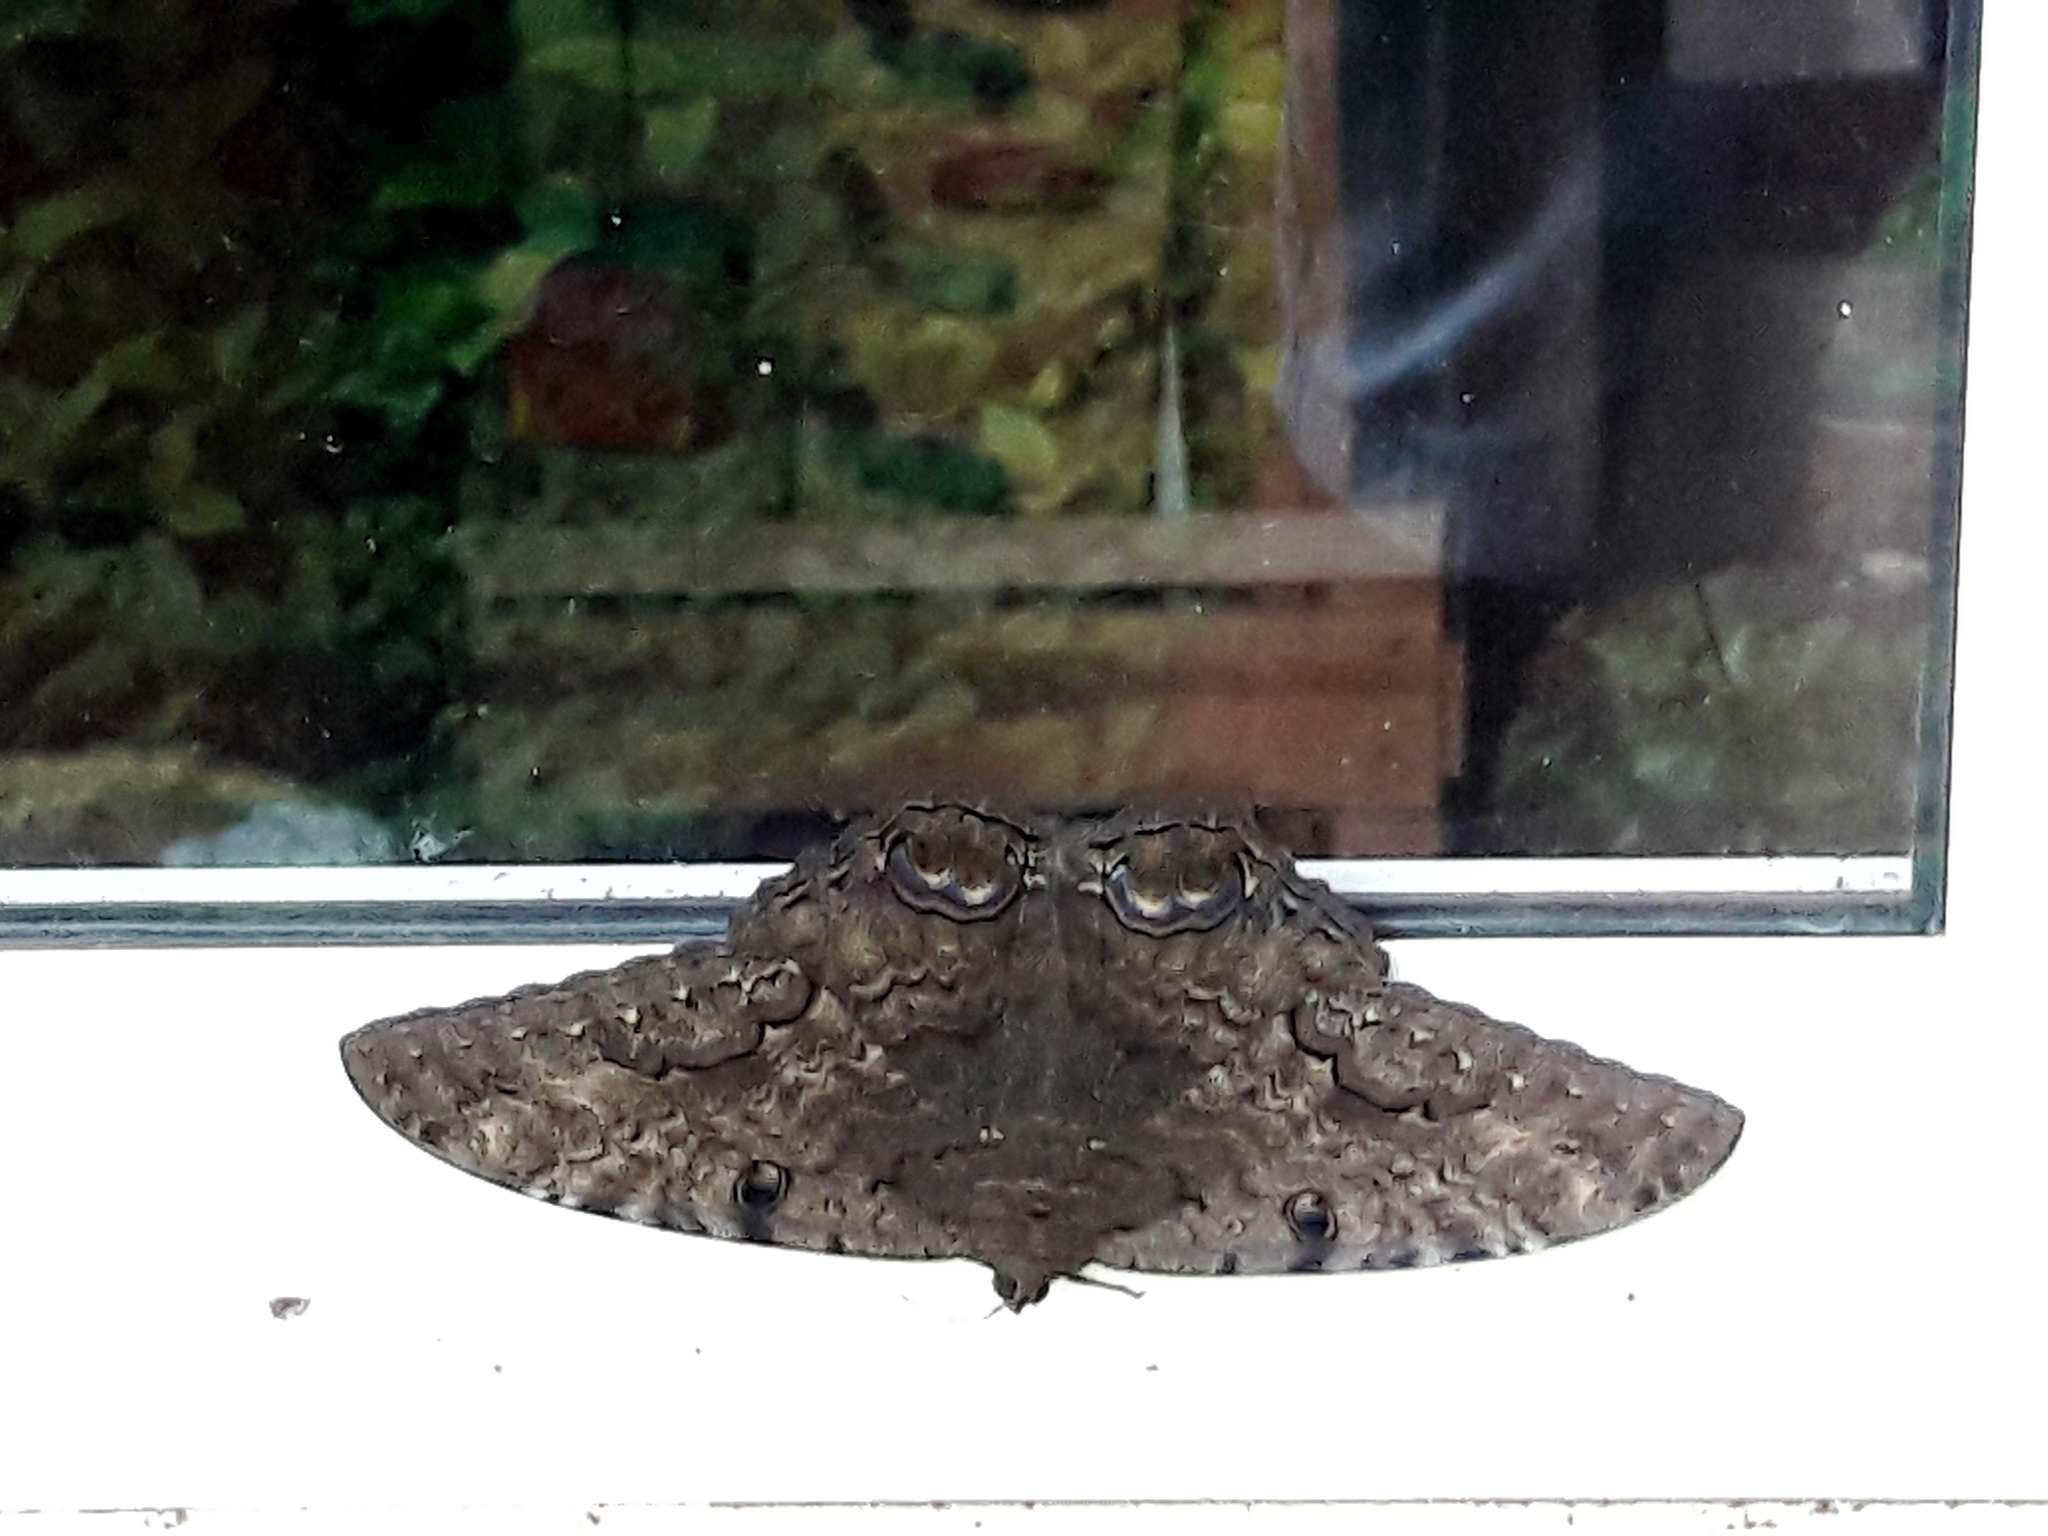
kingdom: Animalia
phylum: Arthropoda
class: Insecta
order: Lepidoptera
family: Erebidae
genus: Ascalapha
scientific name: Ascalapha odorata
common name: Black witch
